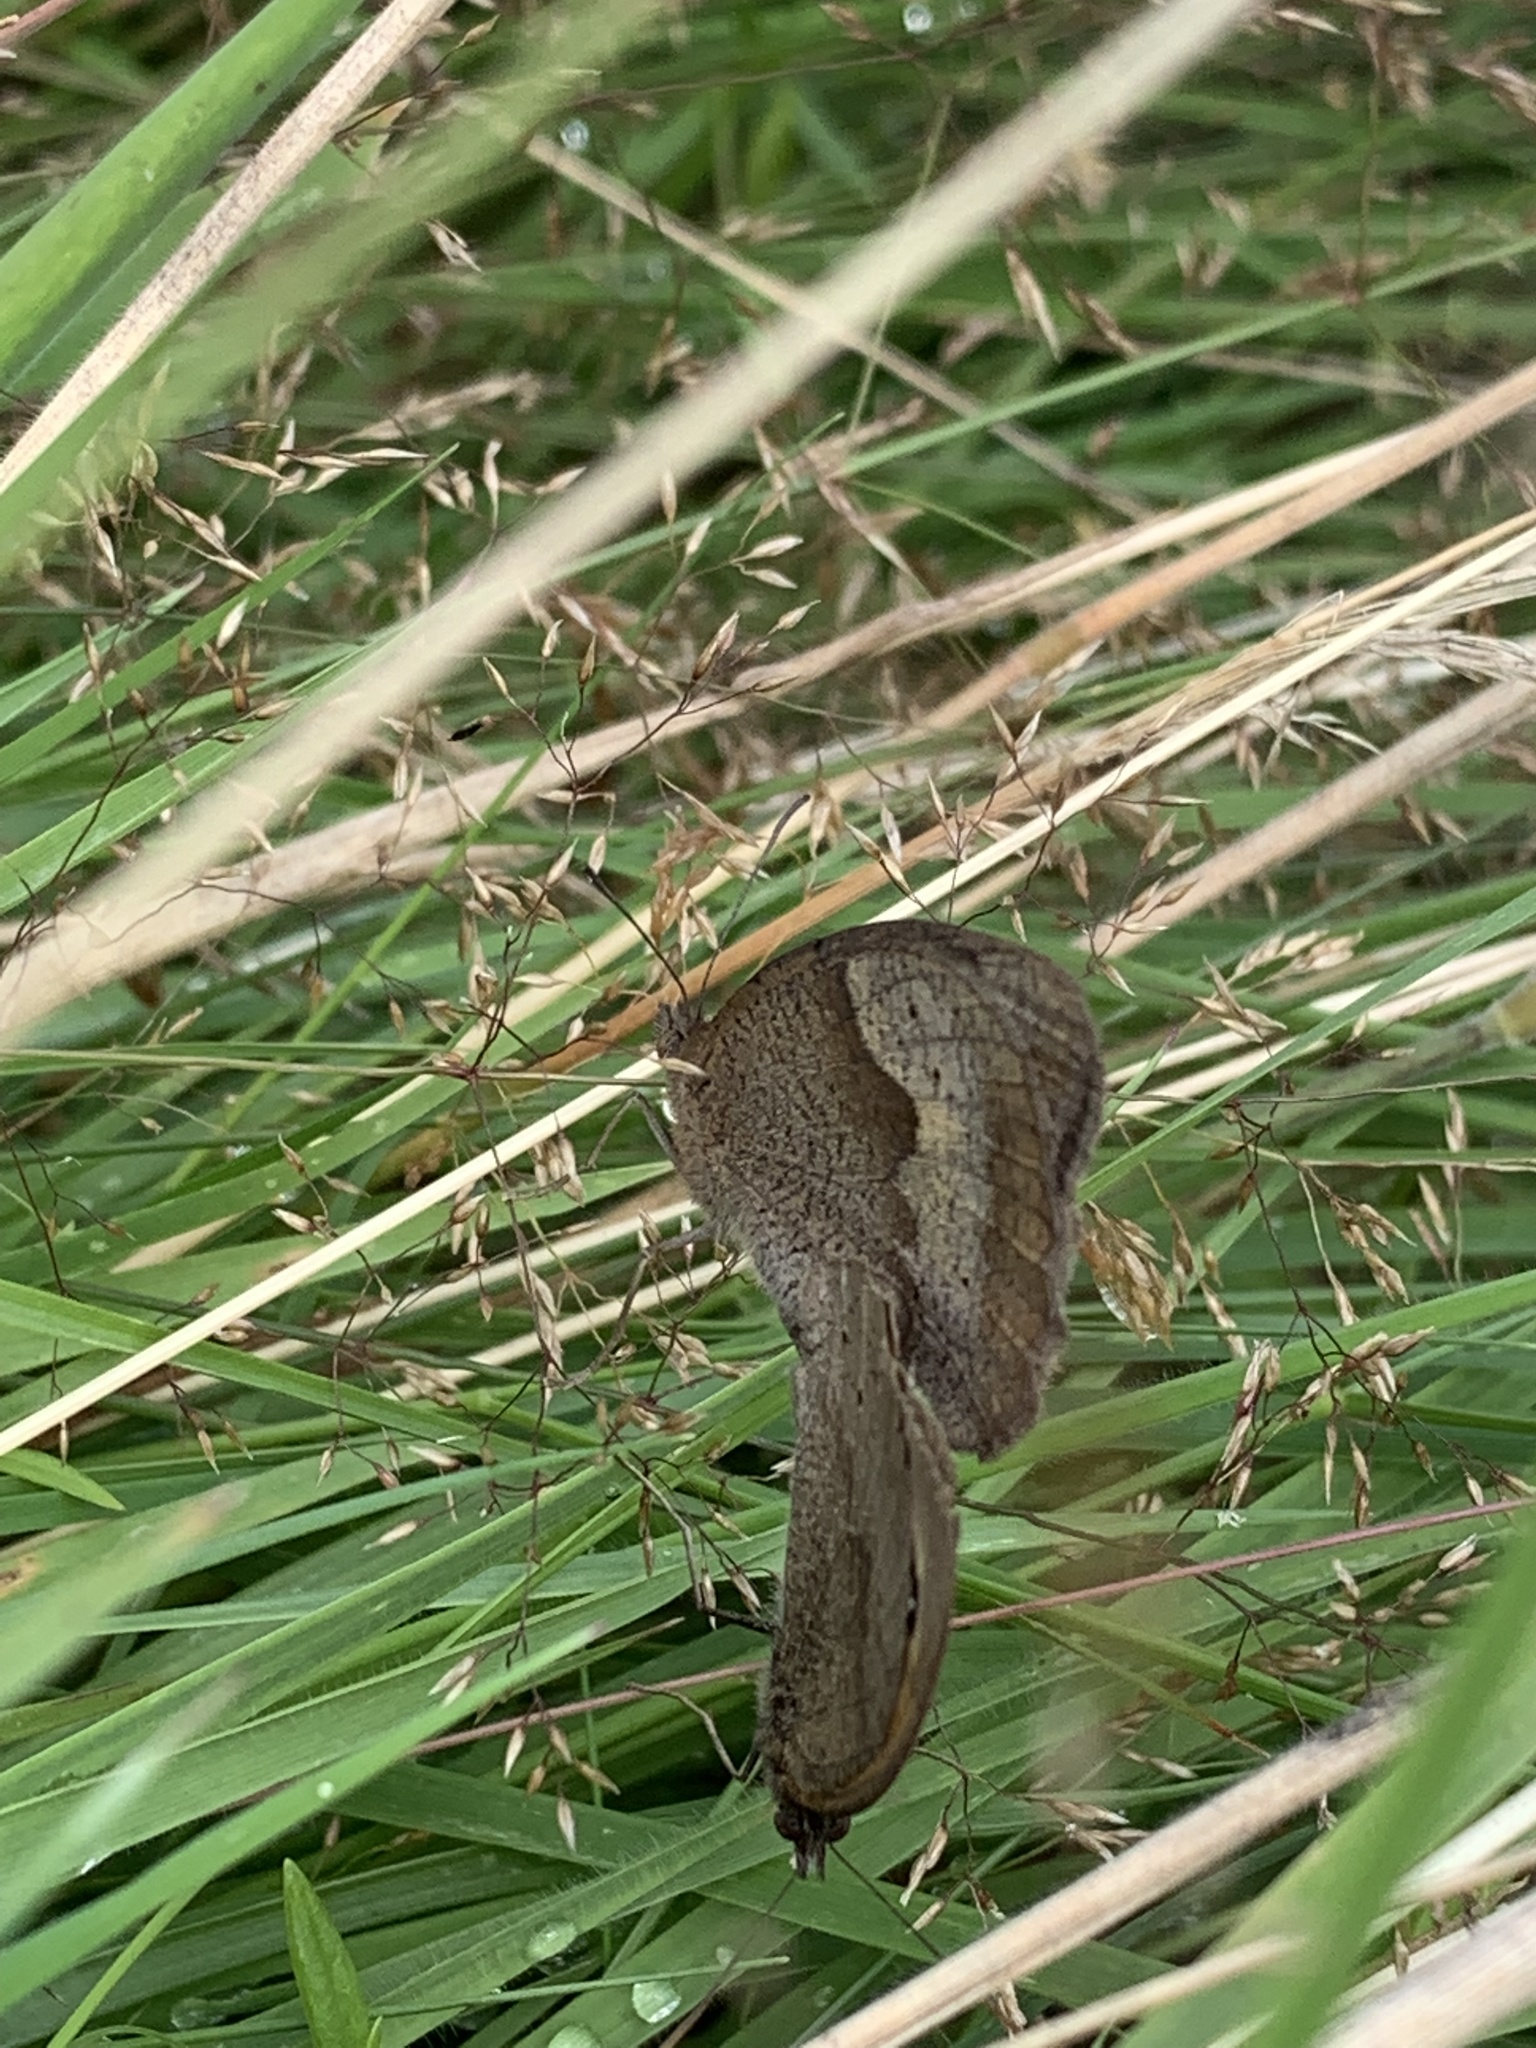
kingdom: Animalia
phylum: Arthropoda
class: Insecta
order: Lepidoptera
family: Nymphalidae
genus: Maniola
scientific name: Maniola jurtina
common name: Meadow brown
